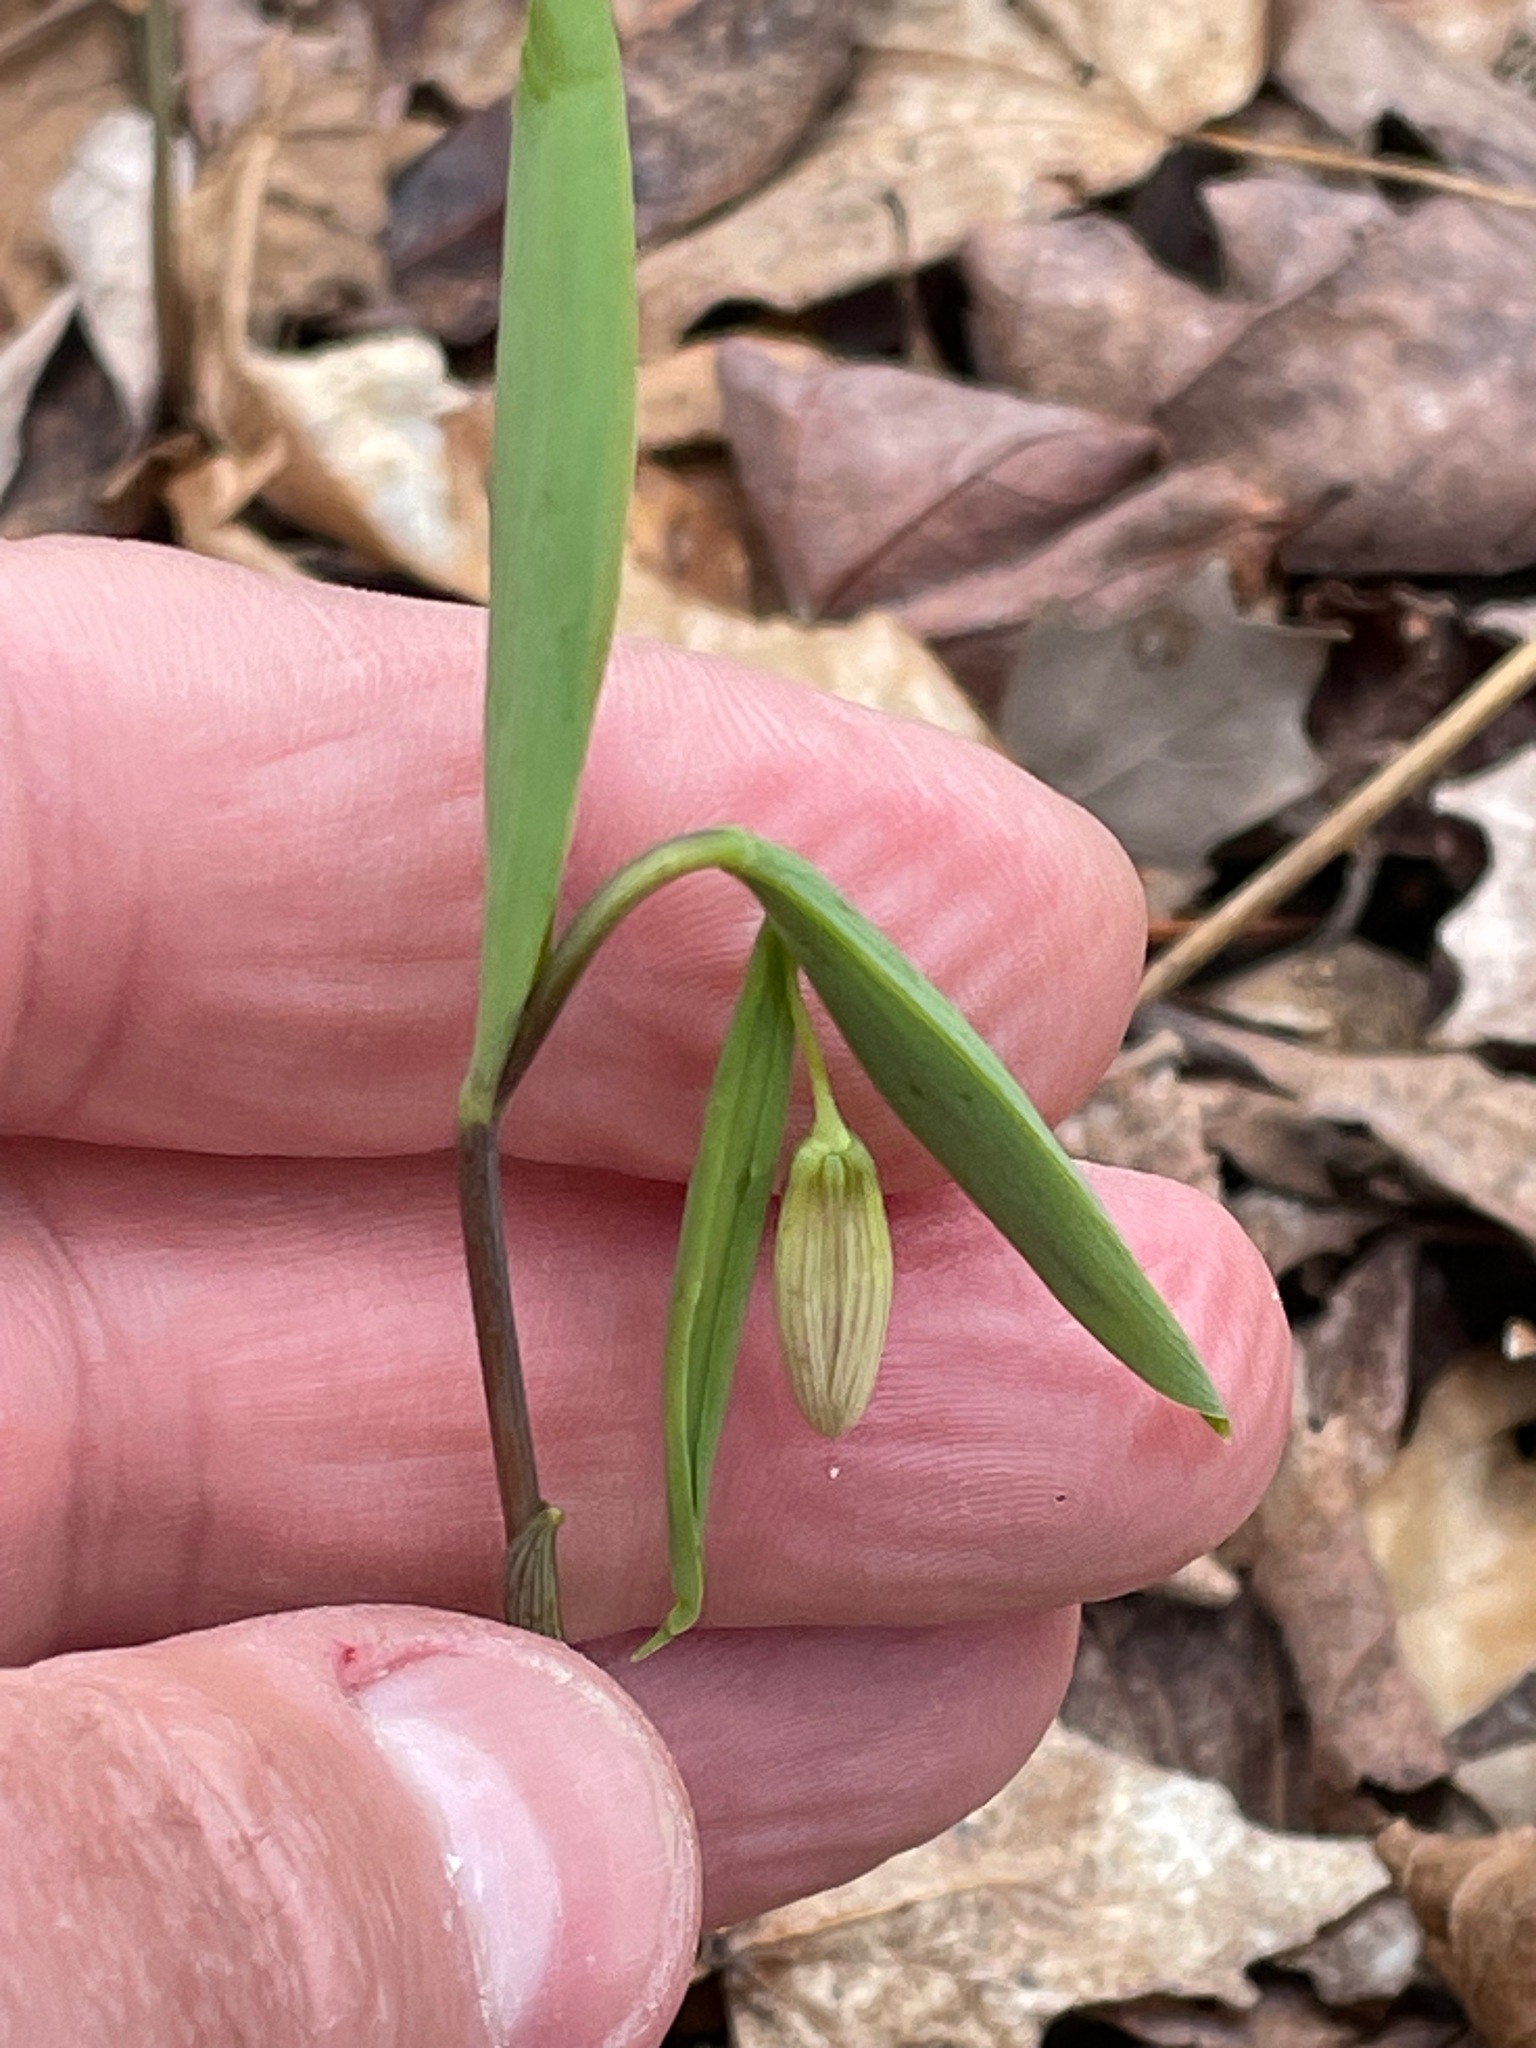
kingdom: Plantae
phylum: Tracheophyta
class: Liliopsida
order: Liliales
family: Colchicaceae
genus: Uvularia
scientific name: Uvularia sessilifolia
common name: Straw-lily
